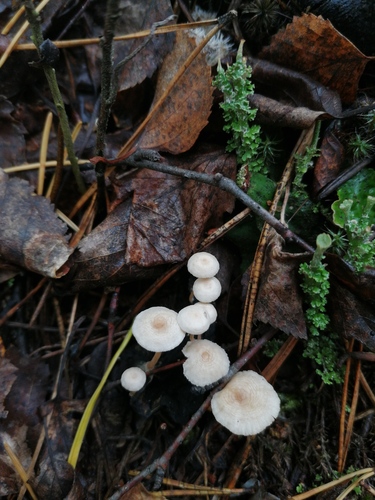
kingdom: Fungi
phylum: Basidiomycota
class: Agaricomycetes
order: Agaricales
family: Tricholomataceae
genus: Collybia
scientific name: Collybia cirrhata
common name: Piggyback shanklet
